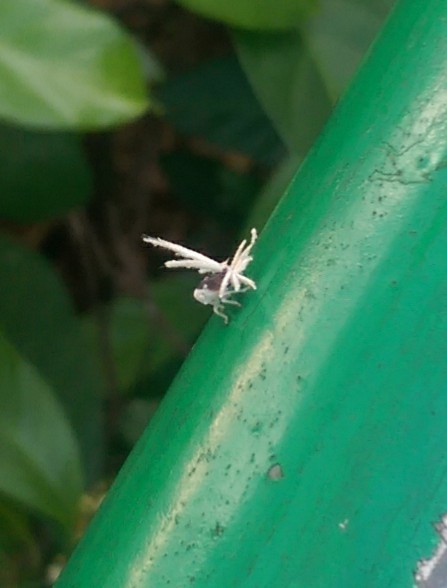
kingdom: Animalia
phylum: Arthropoda
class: Insecta
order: Hemiptera
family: Ricaniidae
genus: Ricania
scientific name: Ricania guttata
